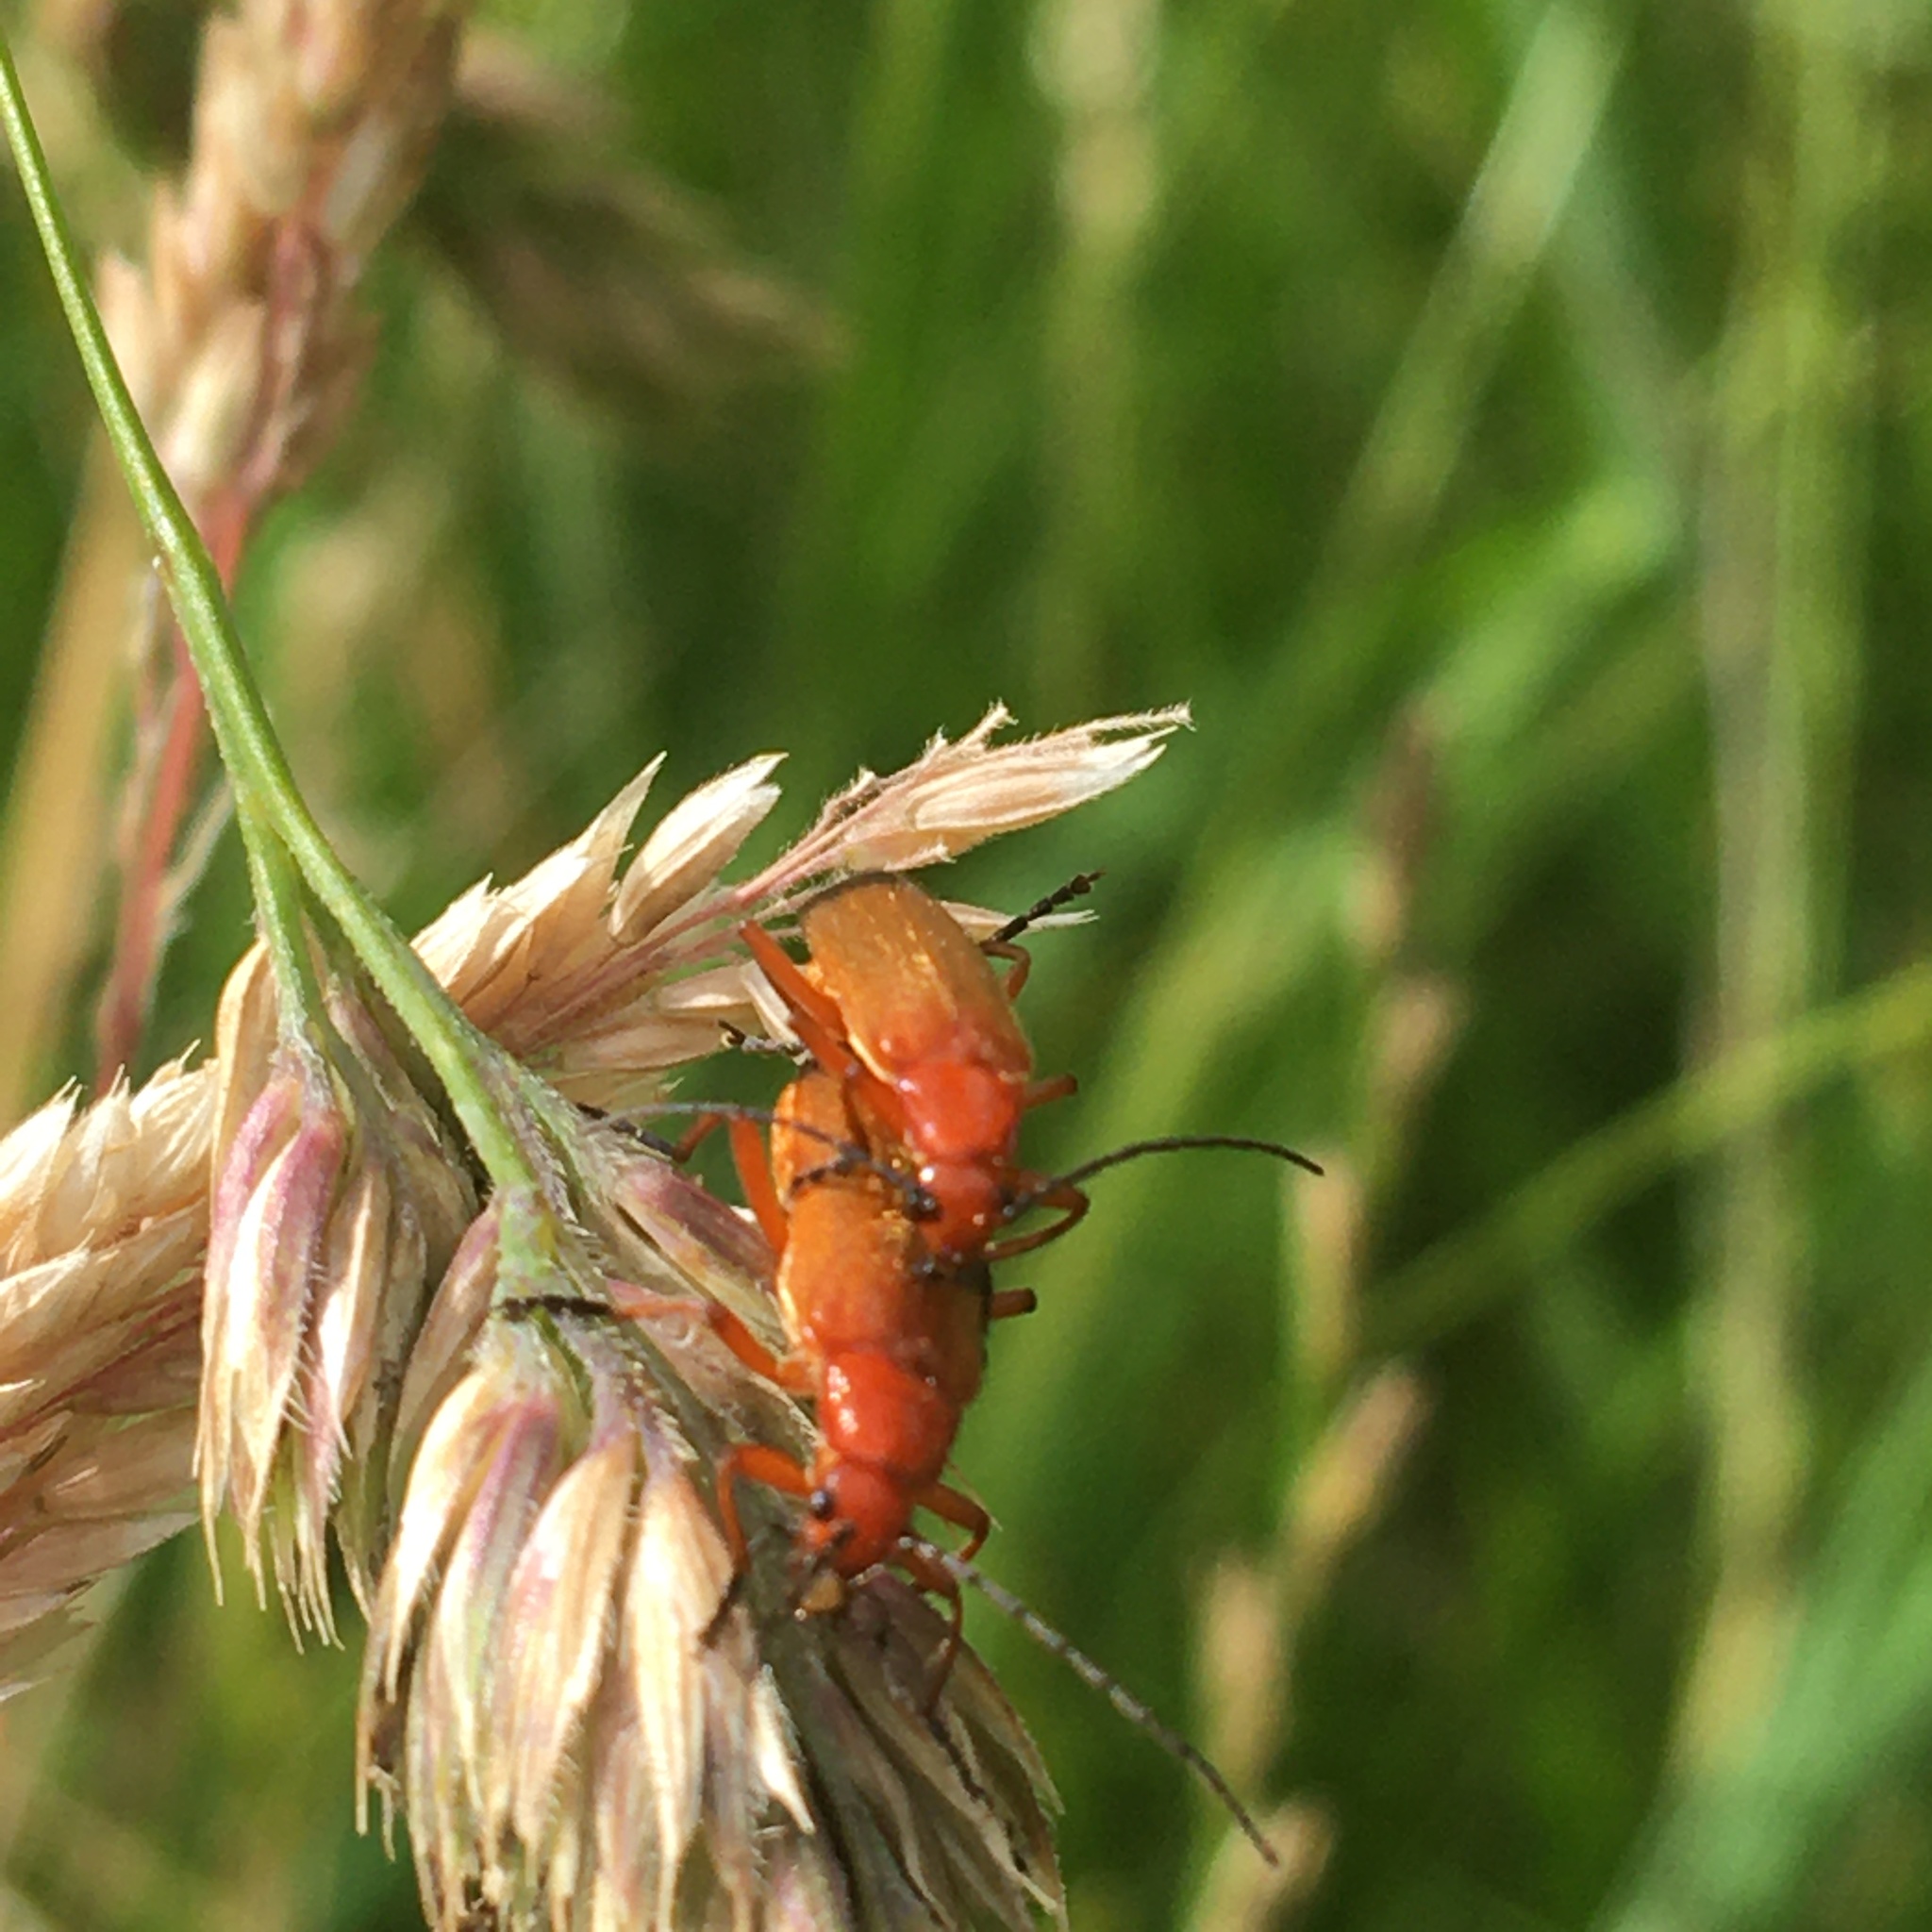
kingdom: Animalia
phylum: Arthropoda
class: Insecta
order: Coleoptera
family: Cantharidae
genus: Rhagonycha
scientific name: Rhagonycha fulva
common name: Common red soldier beetle
